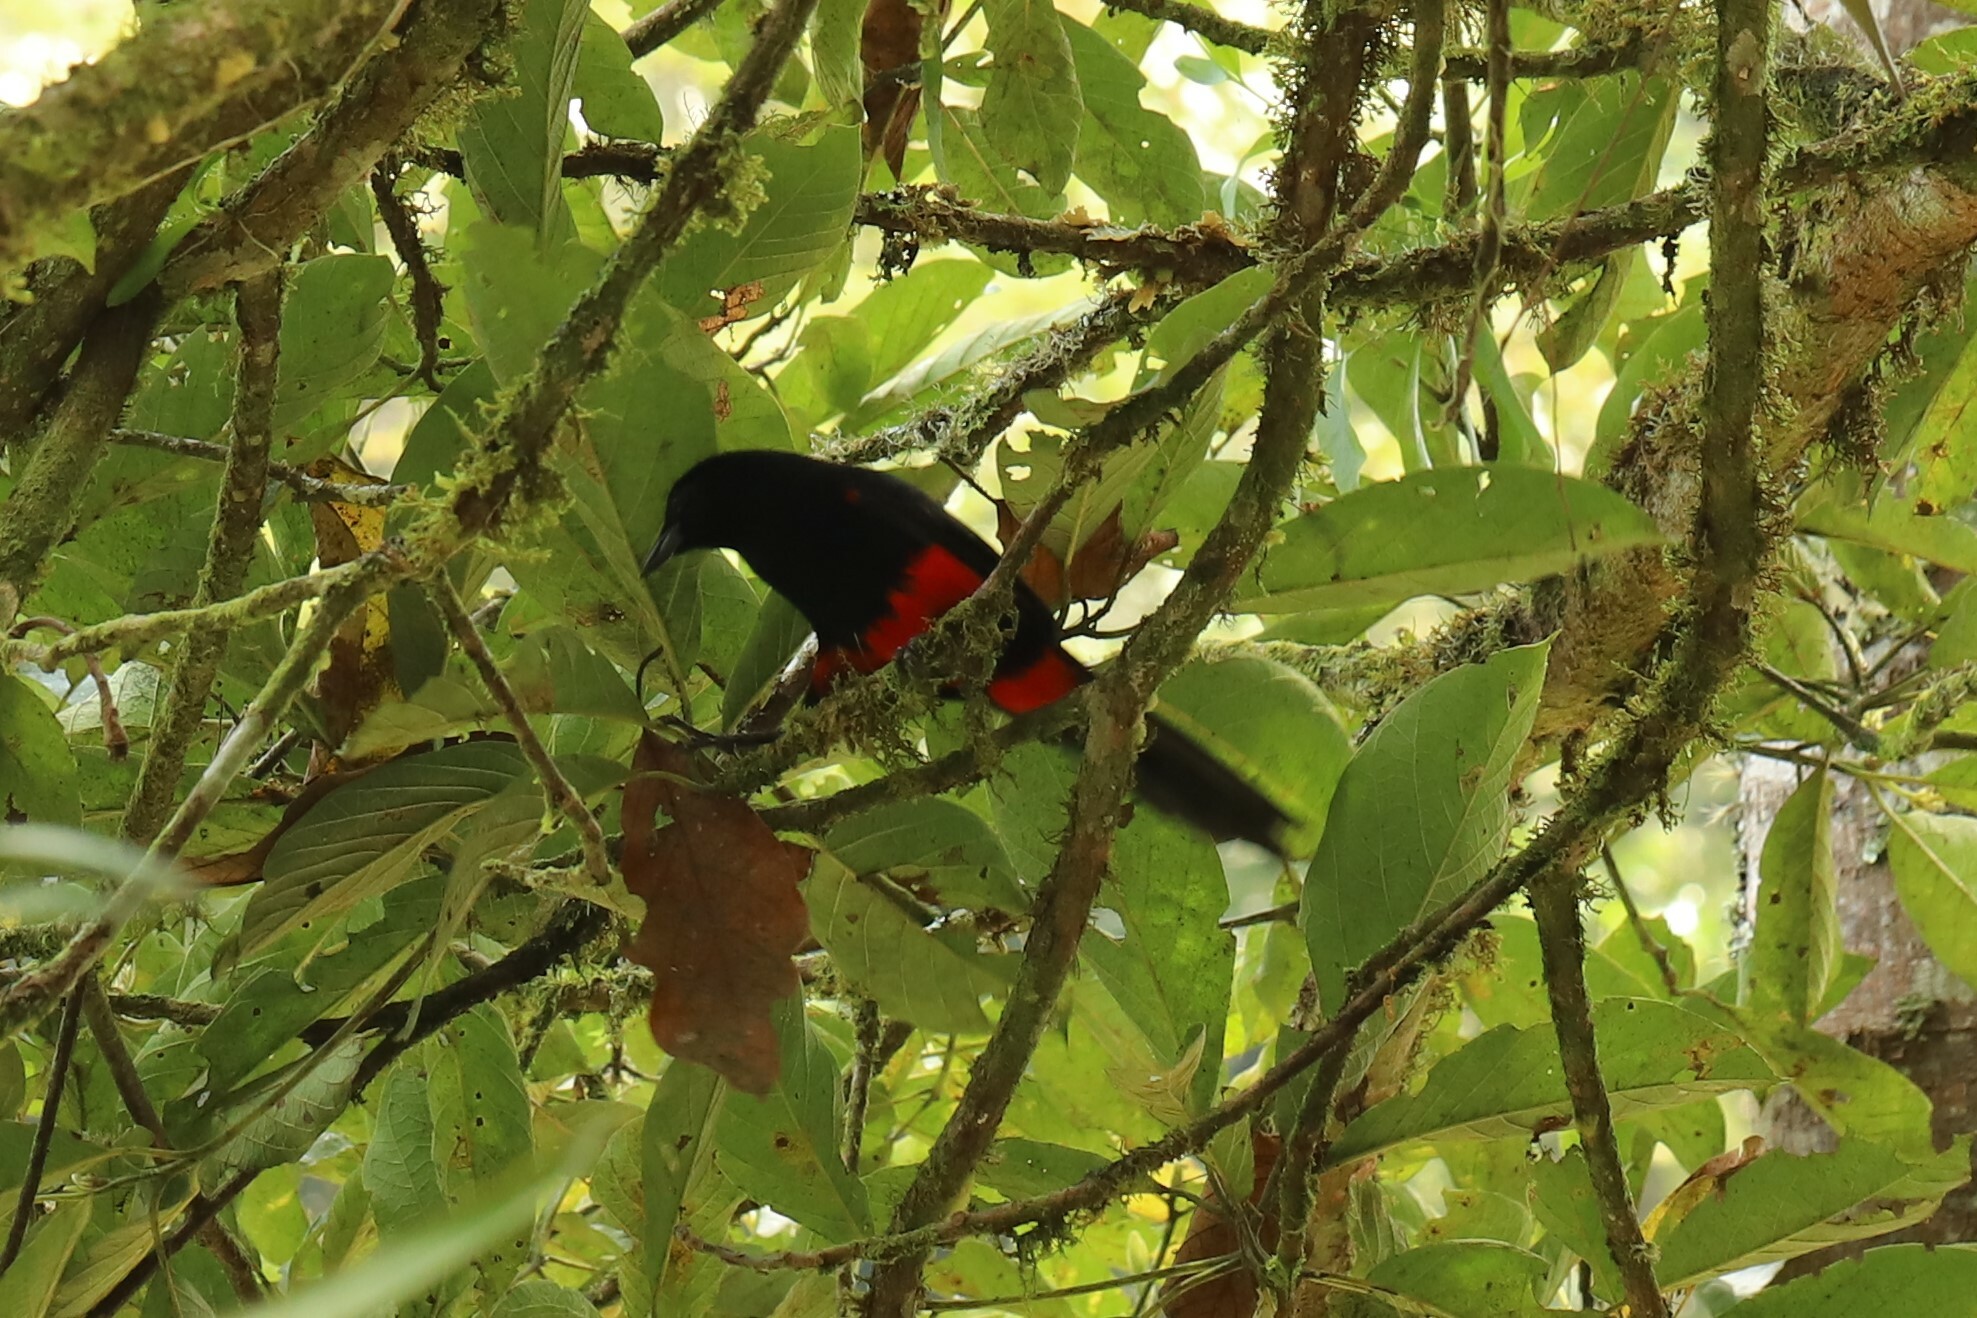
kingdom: Animalia
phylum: Chordata
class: Aves
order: Passeriformes
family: Icteridae
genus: Hypopyrrhus
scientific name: Hypopyrrhus pyrohypogaster
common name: Red-bellied grackle
